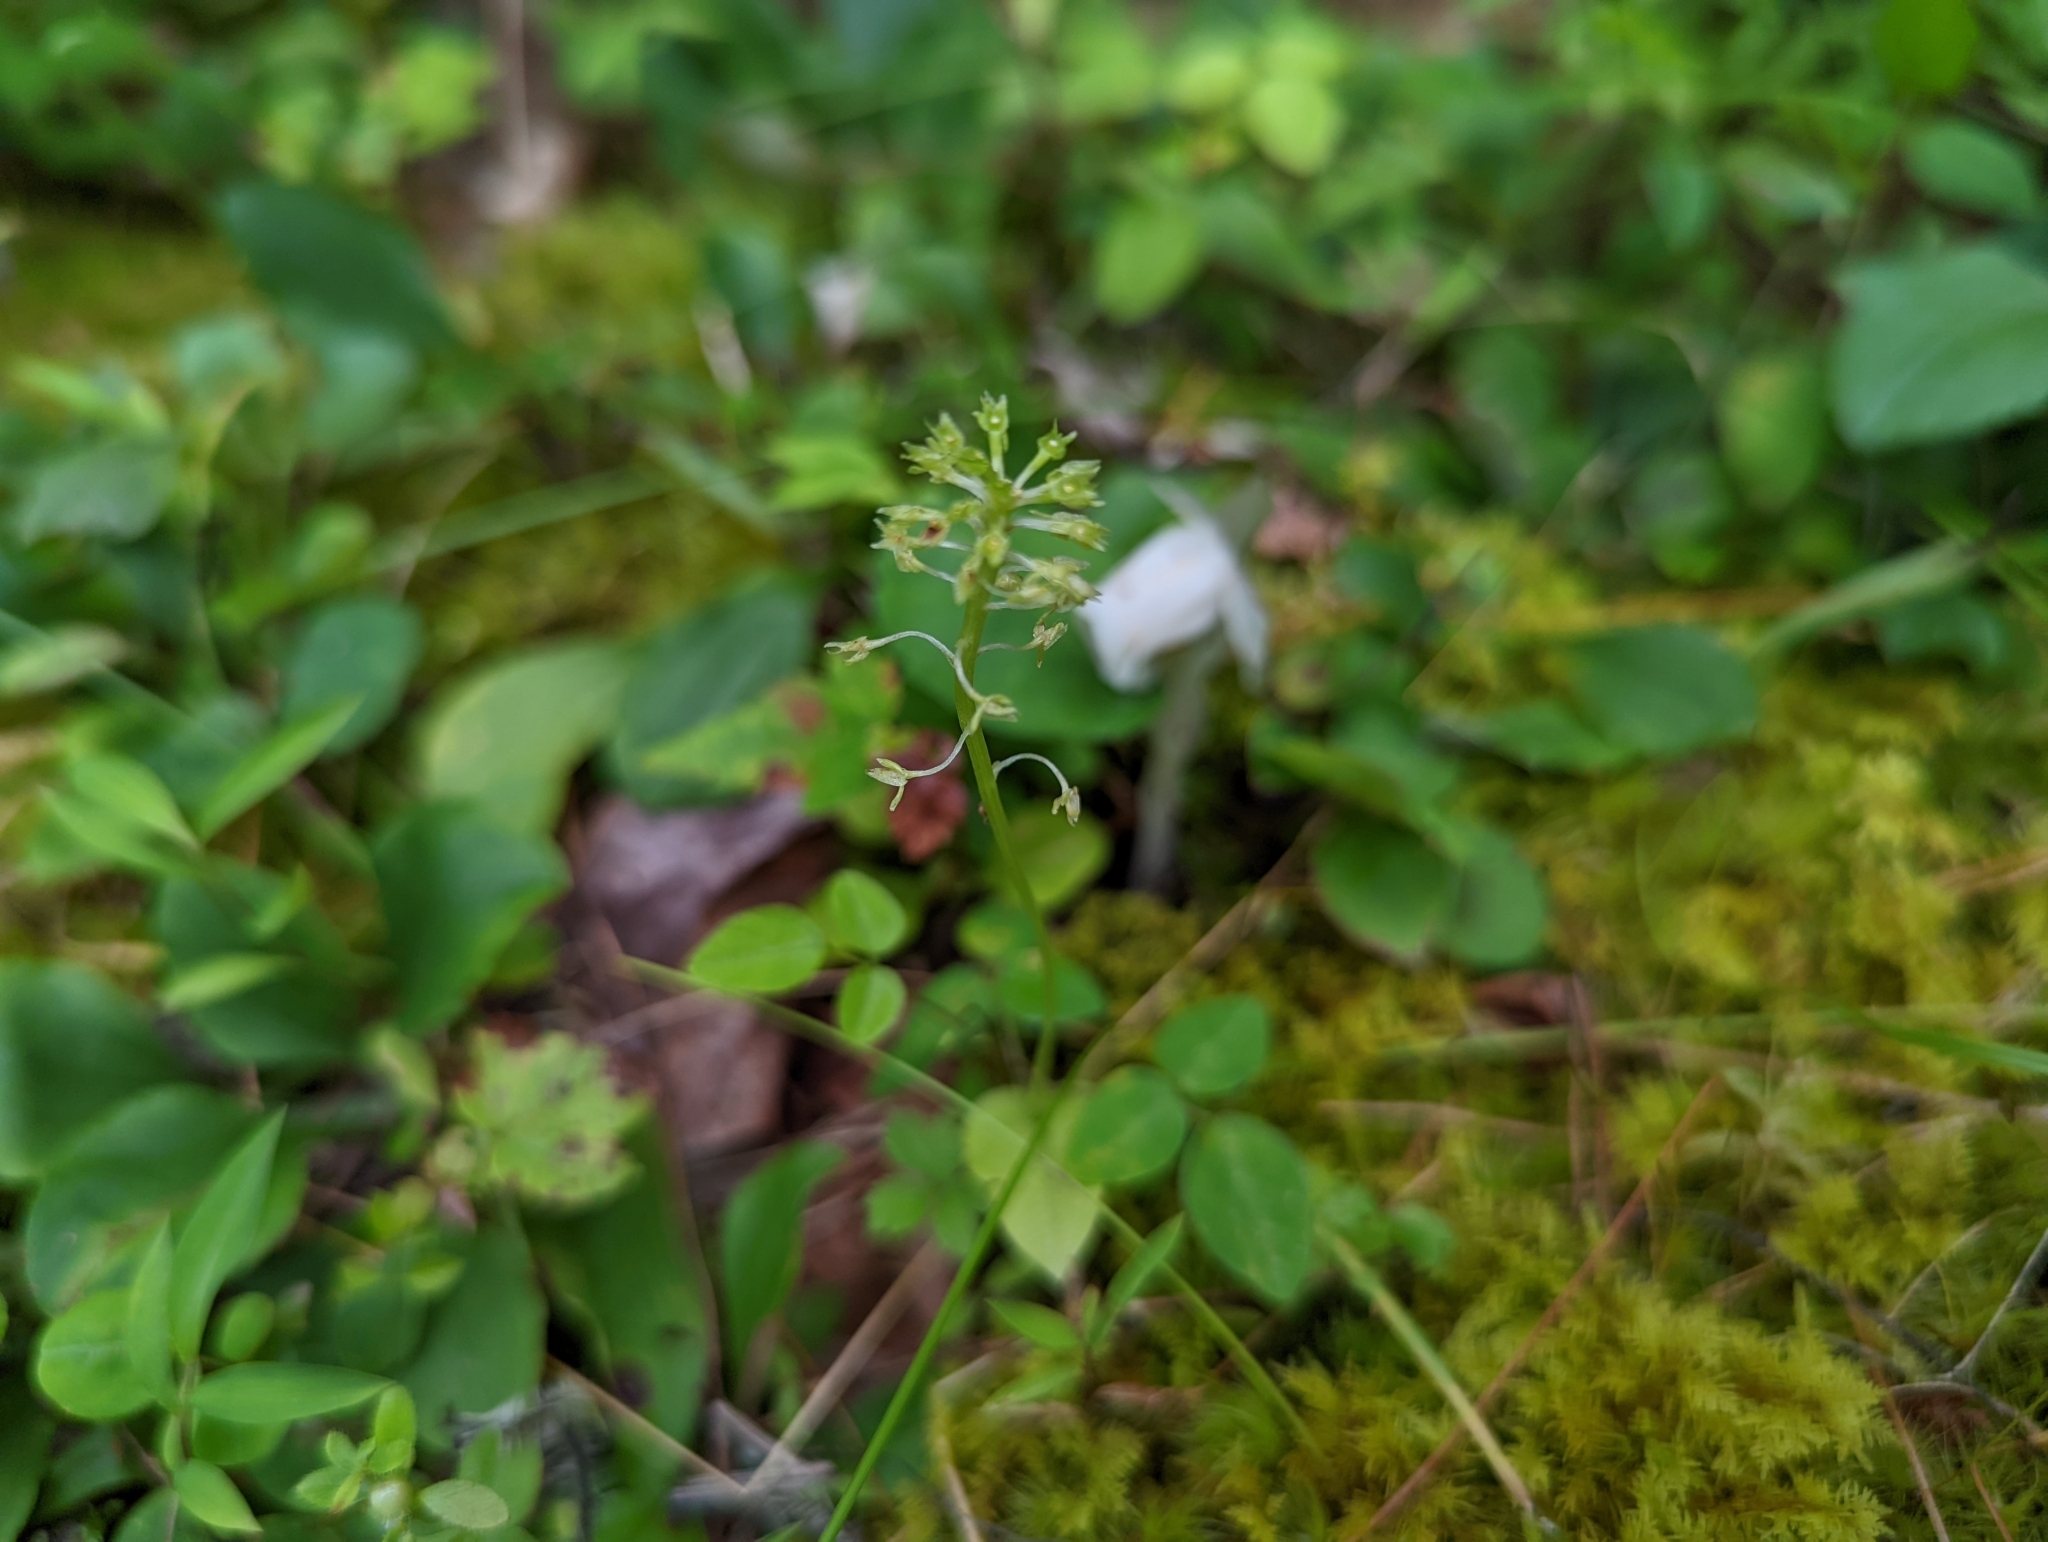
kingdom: Plantae
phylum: Tracheophyta
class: Liliopsida
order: Asparagales
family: Orchidaceae
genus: Malaxis
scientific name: Malaxis unifolia
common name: Green adder's-mouth
